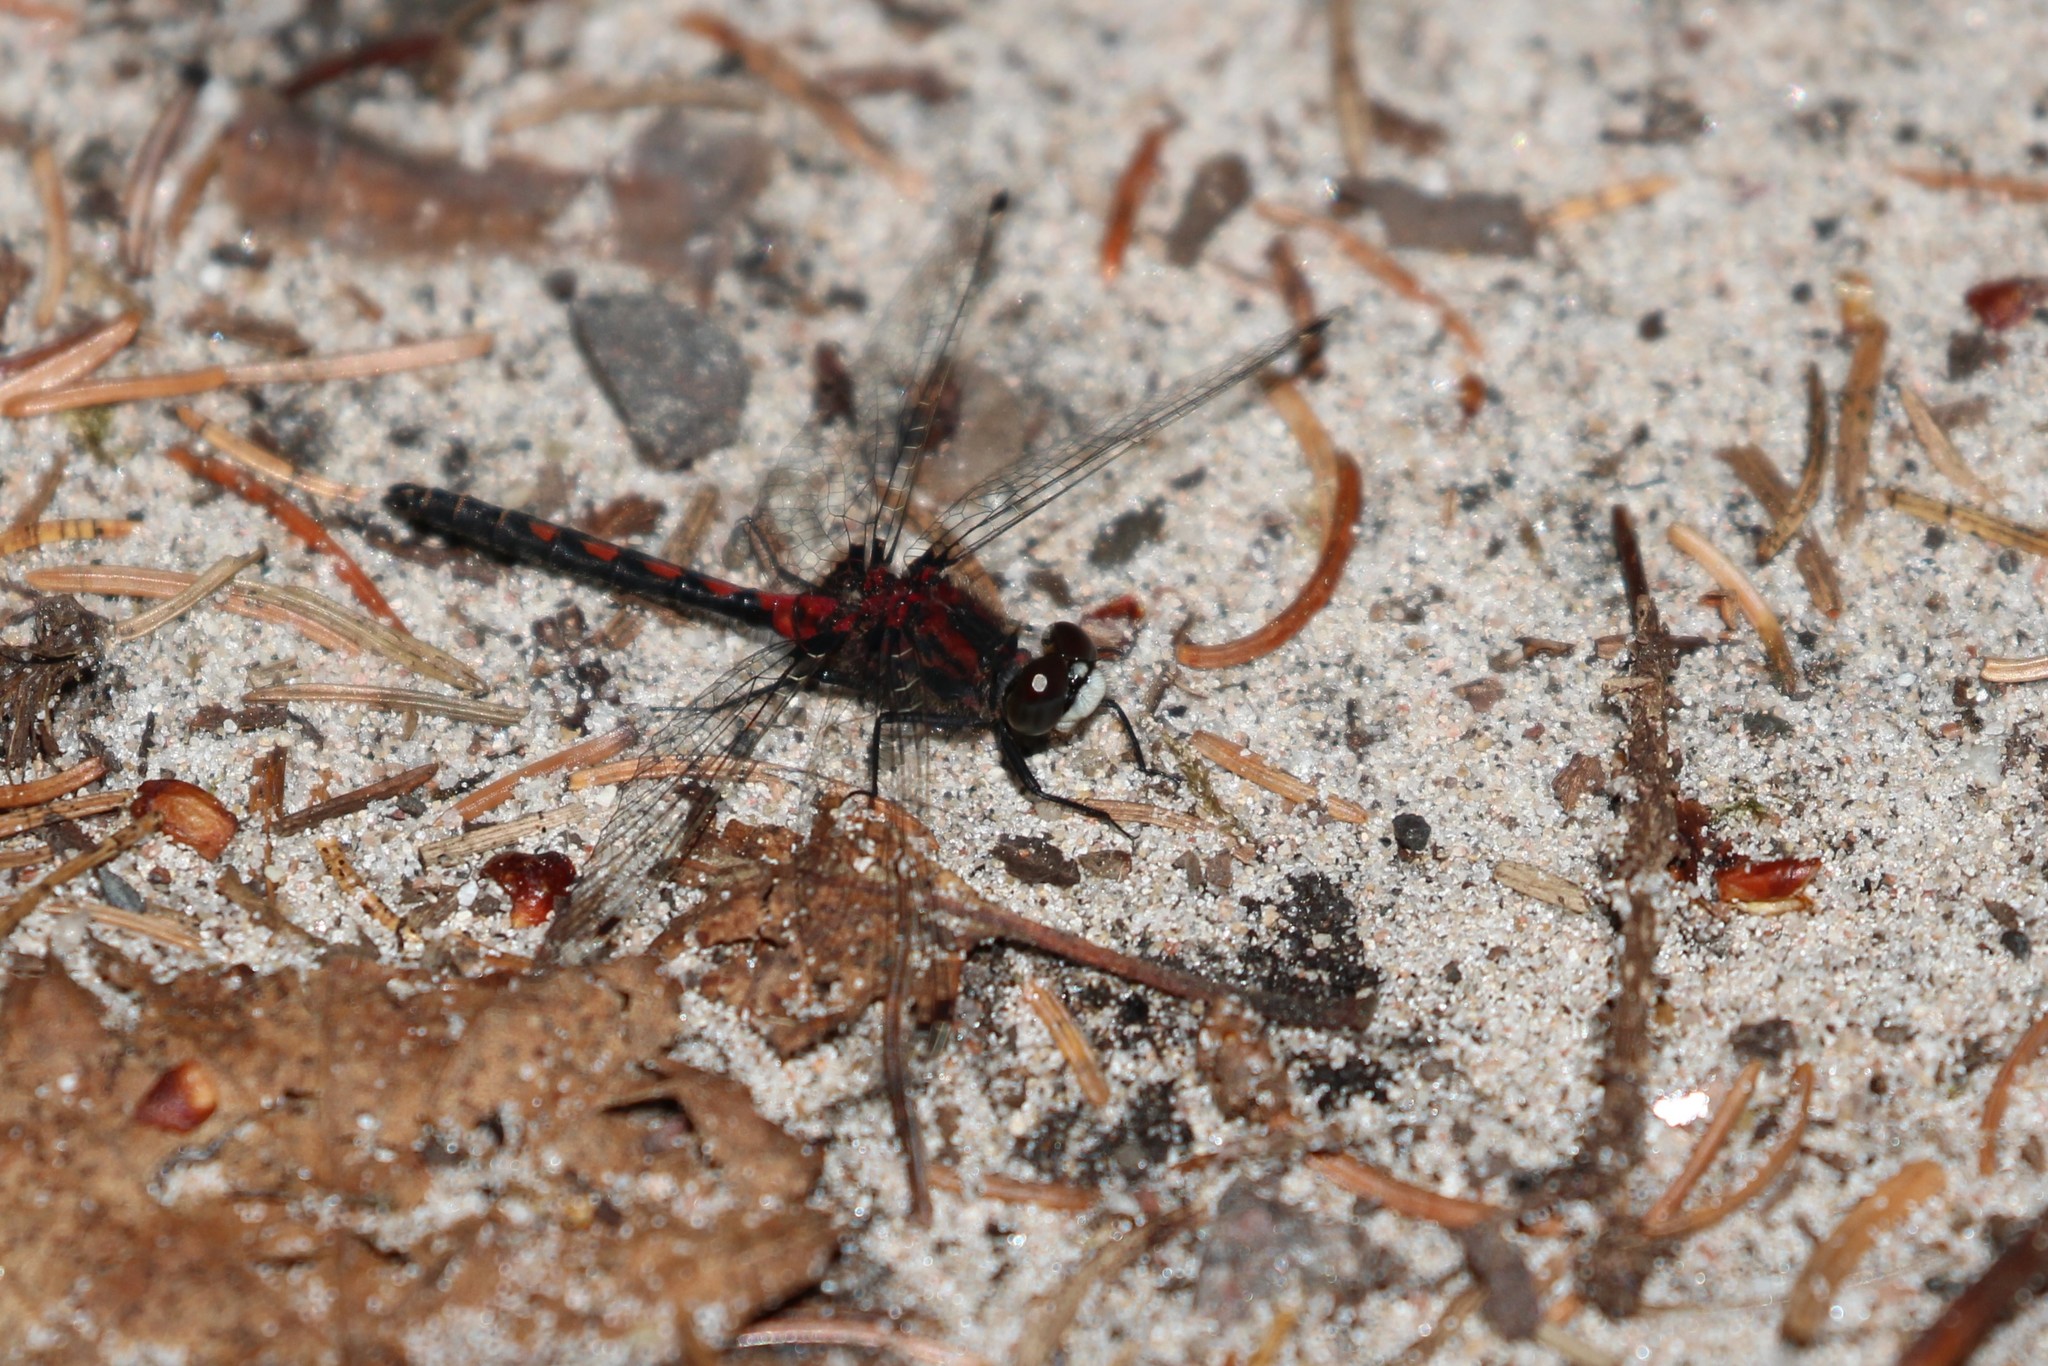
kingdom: Animalia
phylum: Arthropoda
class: Insecta
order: Odonata
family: Libellulidae
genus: Leucorrhinia
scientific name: Leucorrhinia hudsonica
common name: Hudsonian whiteface
